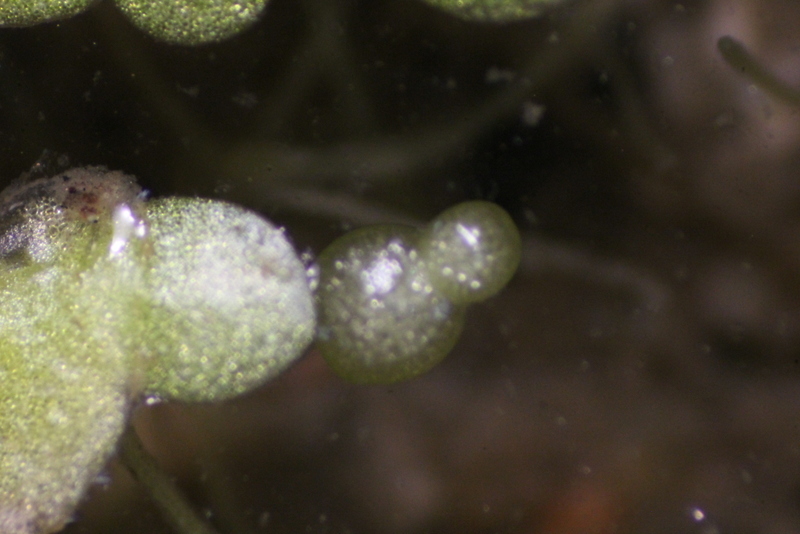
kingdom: Plantae
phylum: Tracheophyta
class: Liliopsida
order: Alismatales
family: Araceae
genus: Wolffia
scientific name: Wolffia
